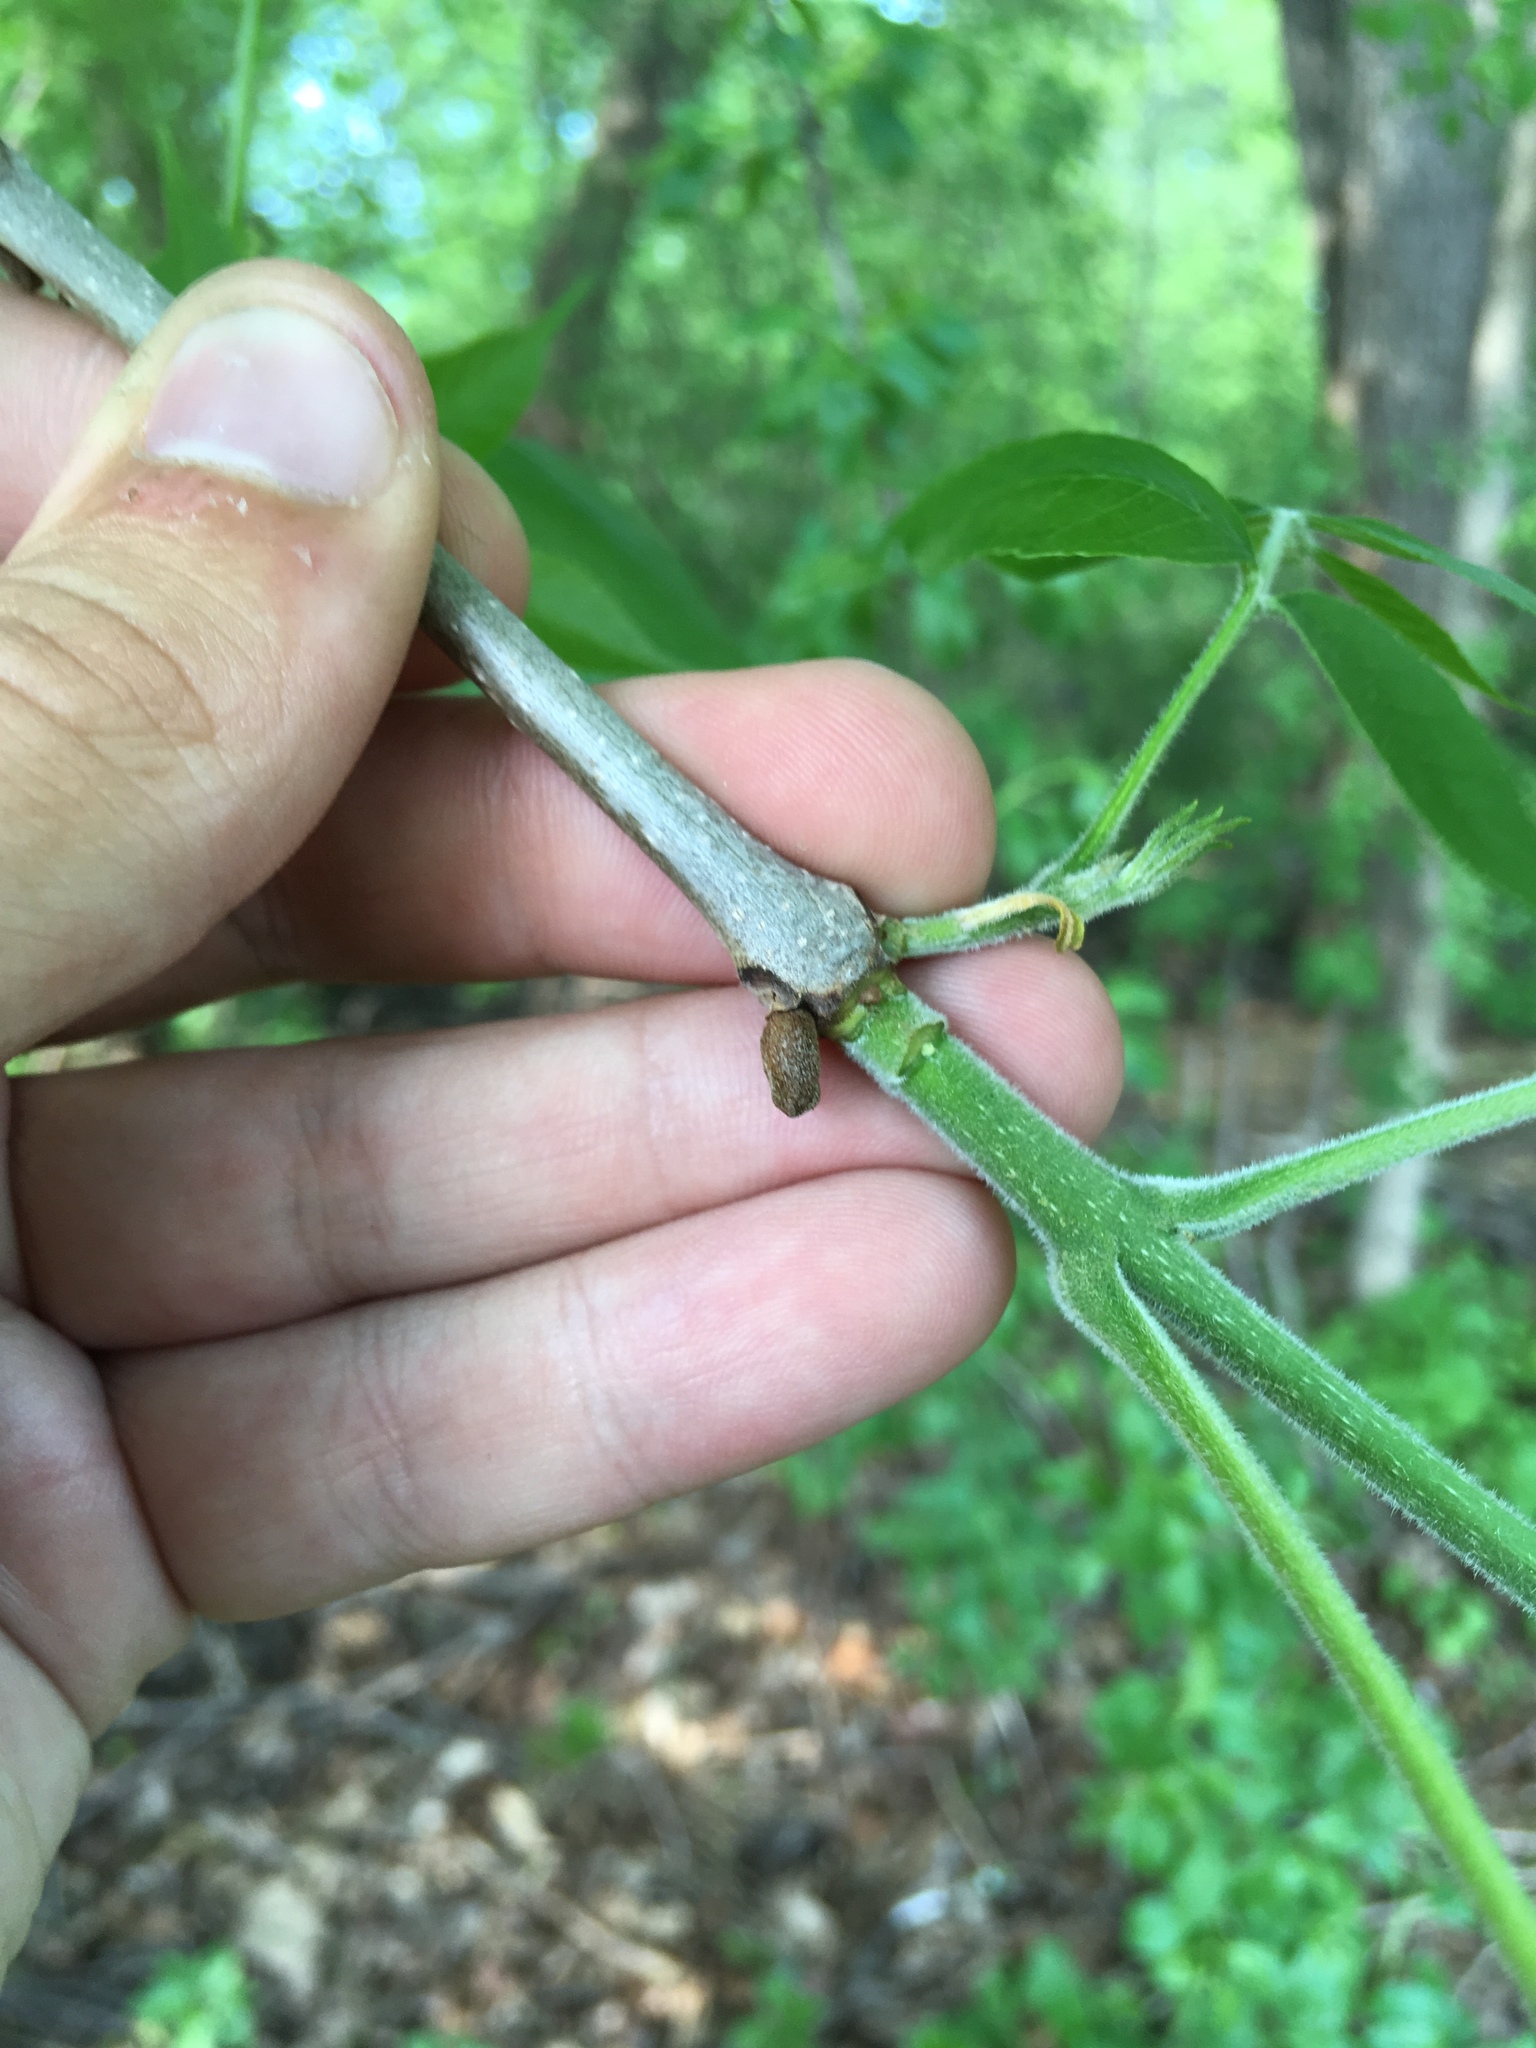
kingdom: Plantae
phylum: Tracheophyta
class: Magnoliopsida
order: Lamiales
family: Oleaceae
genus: Fraxinus
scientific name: Fraxinus pennsylvanica
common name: Green ash
